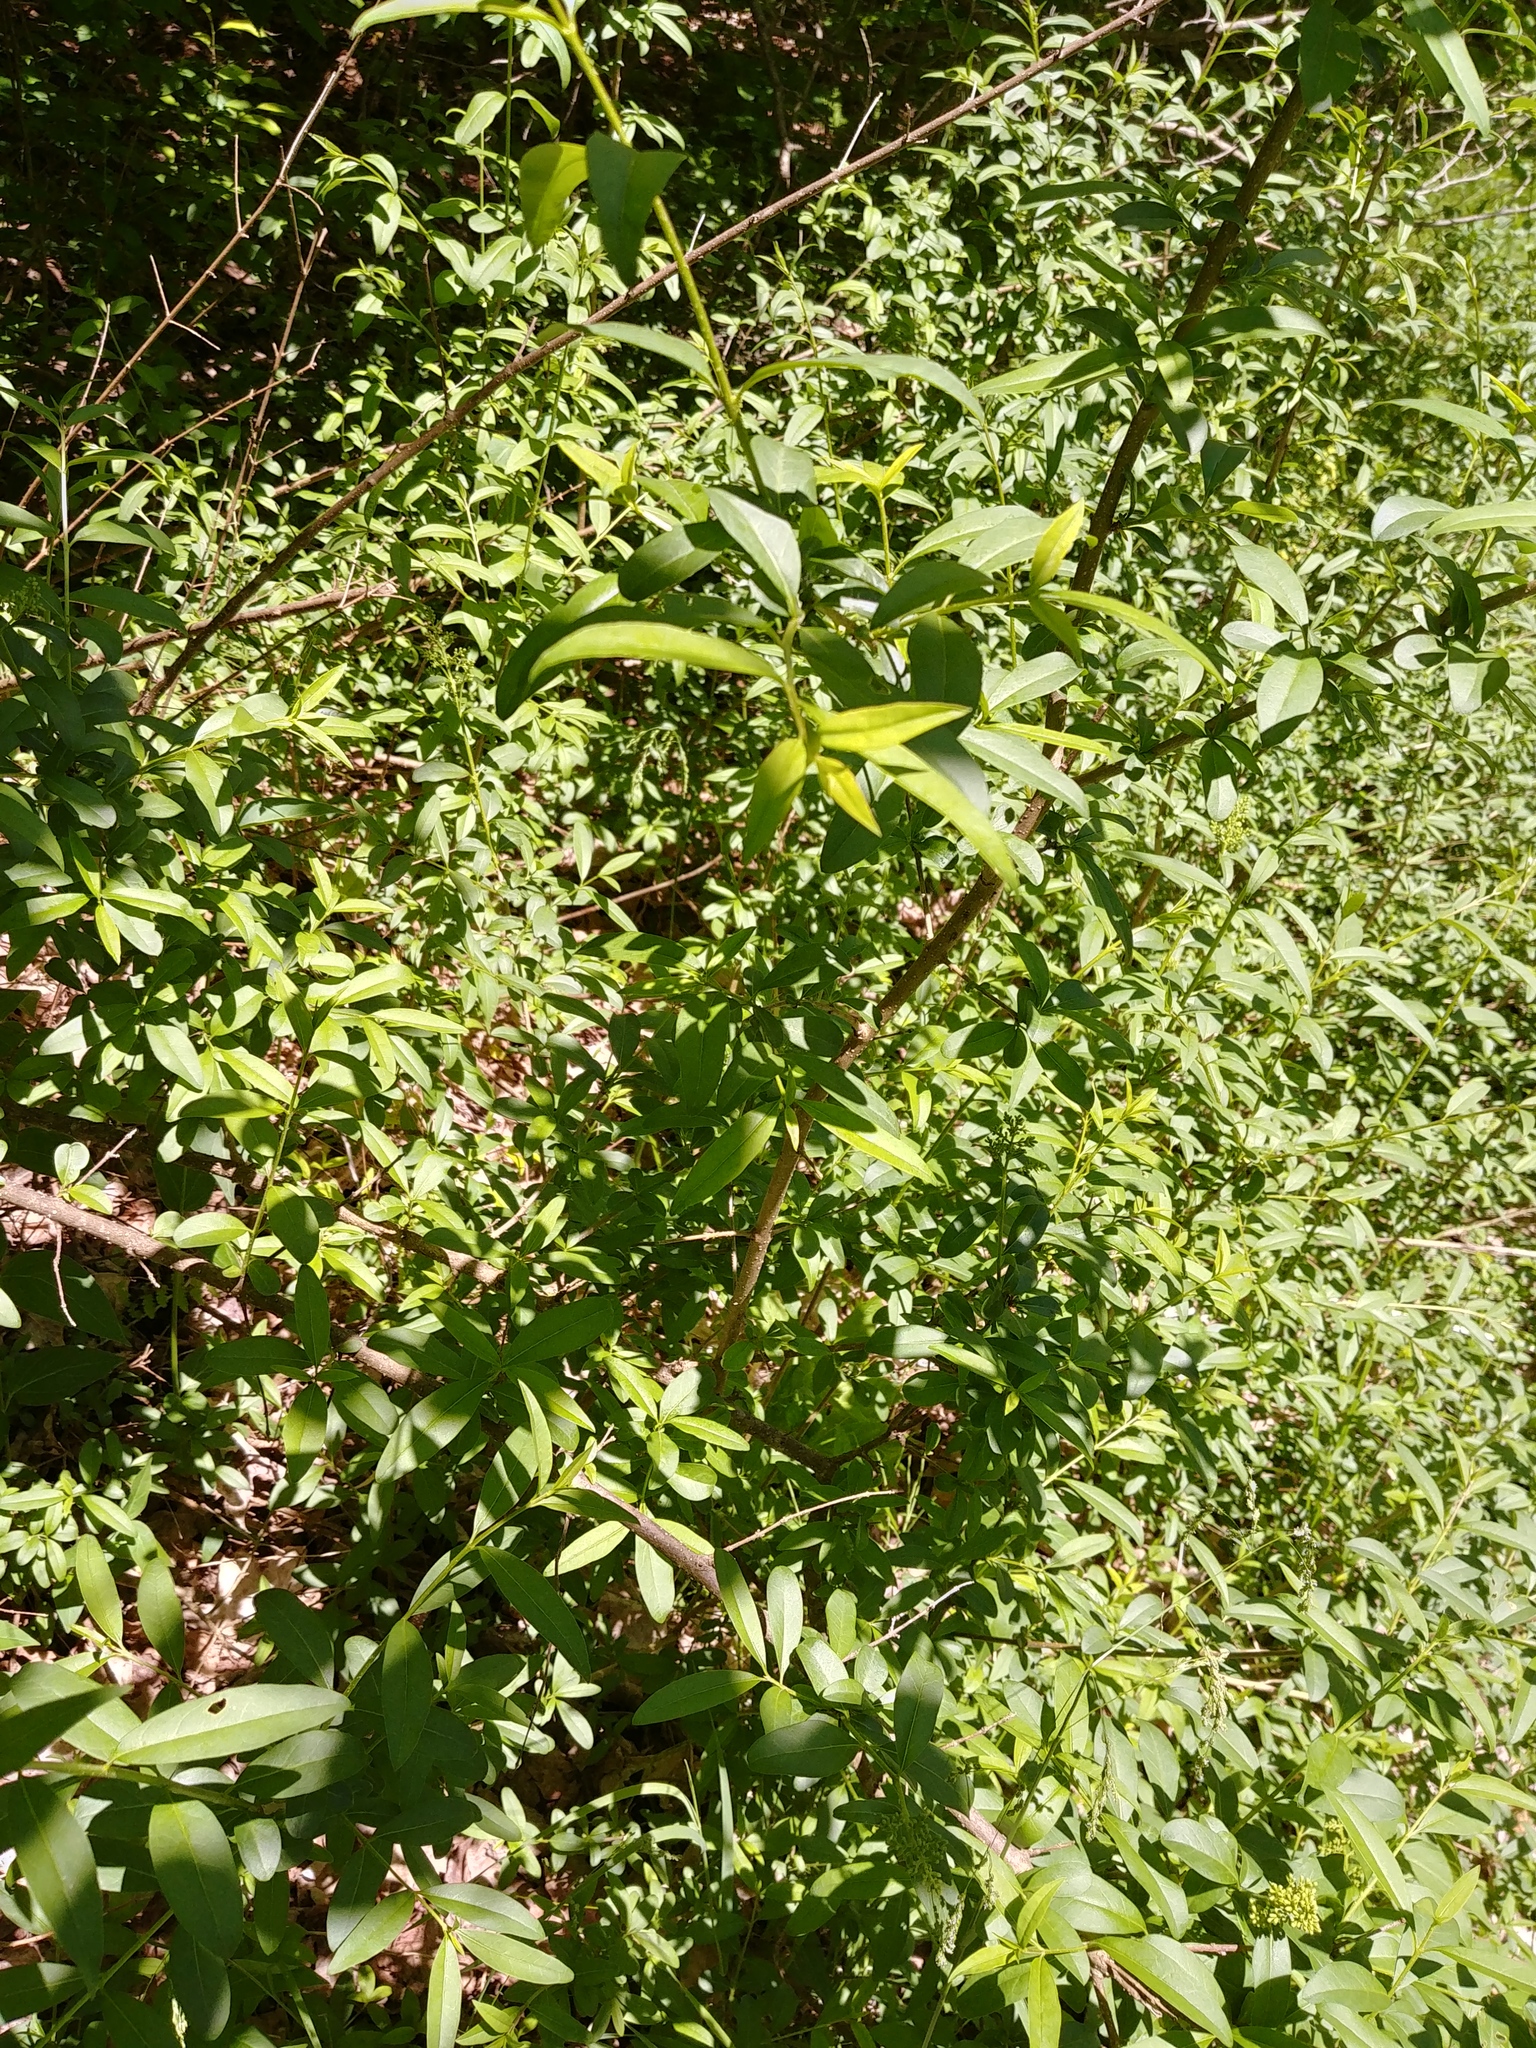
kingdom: Plantae
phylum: Tracheophyta
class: Magnoliopsida
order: Lamiales
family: Oleaceae
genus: Ligustrum
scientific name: Ligustrum vulgare
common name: Wild privet
